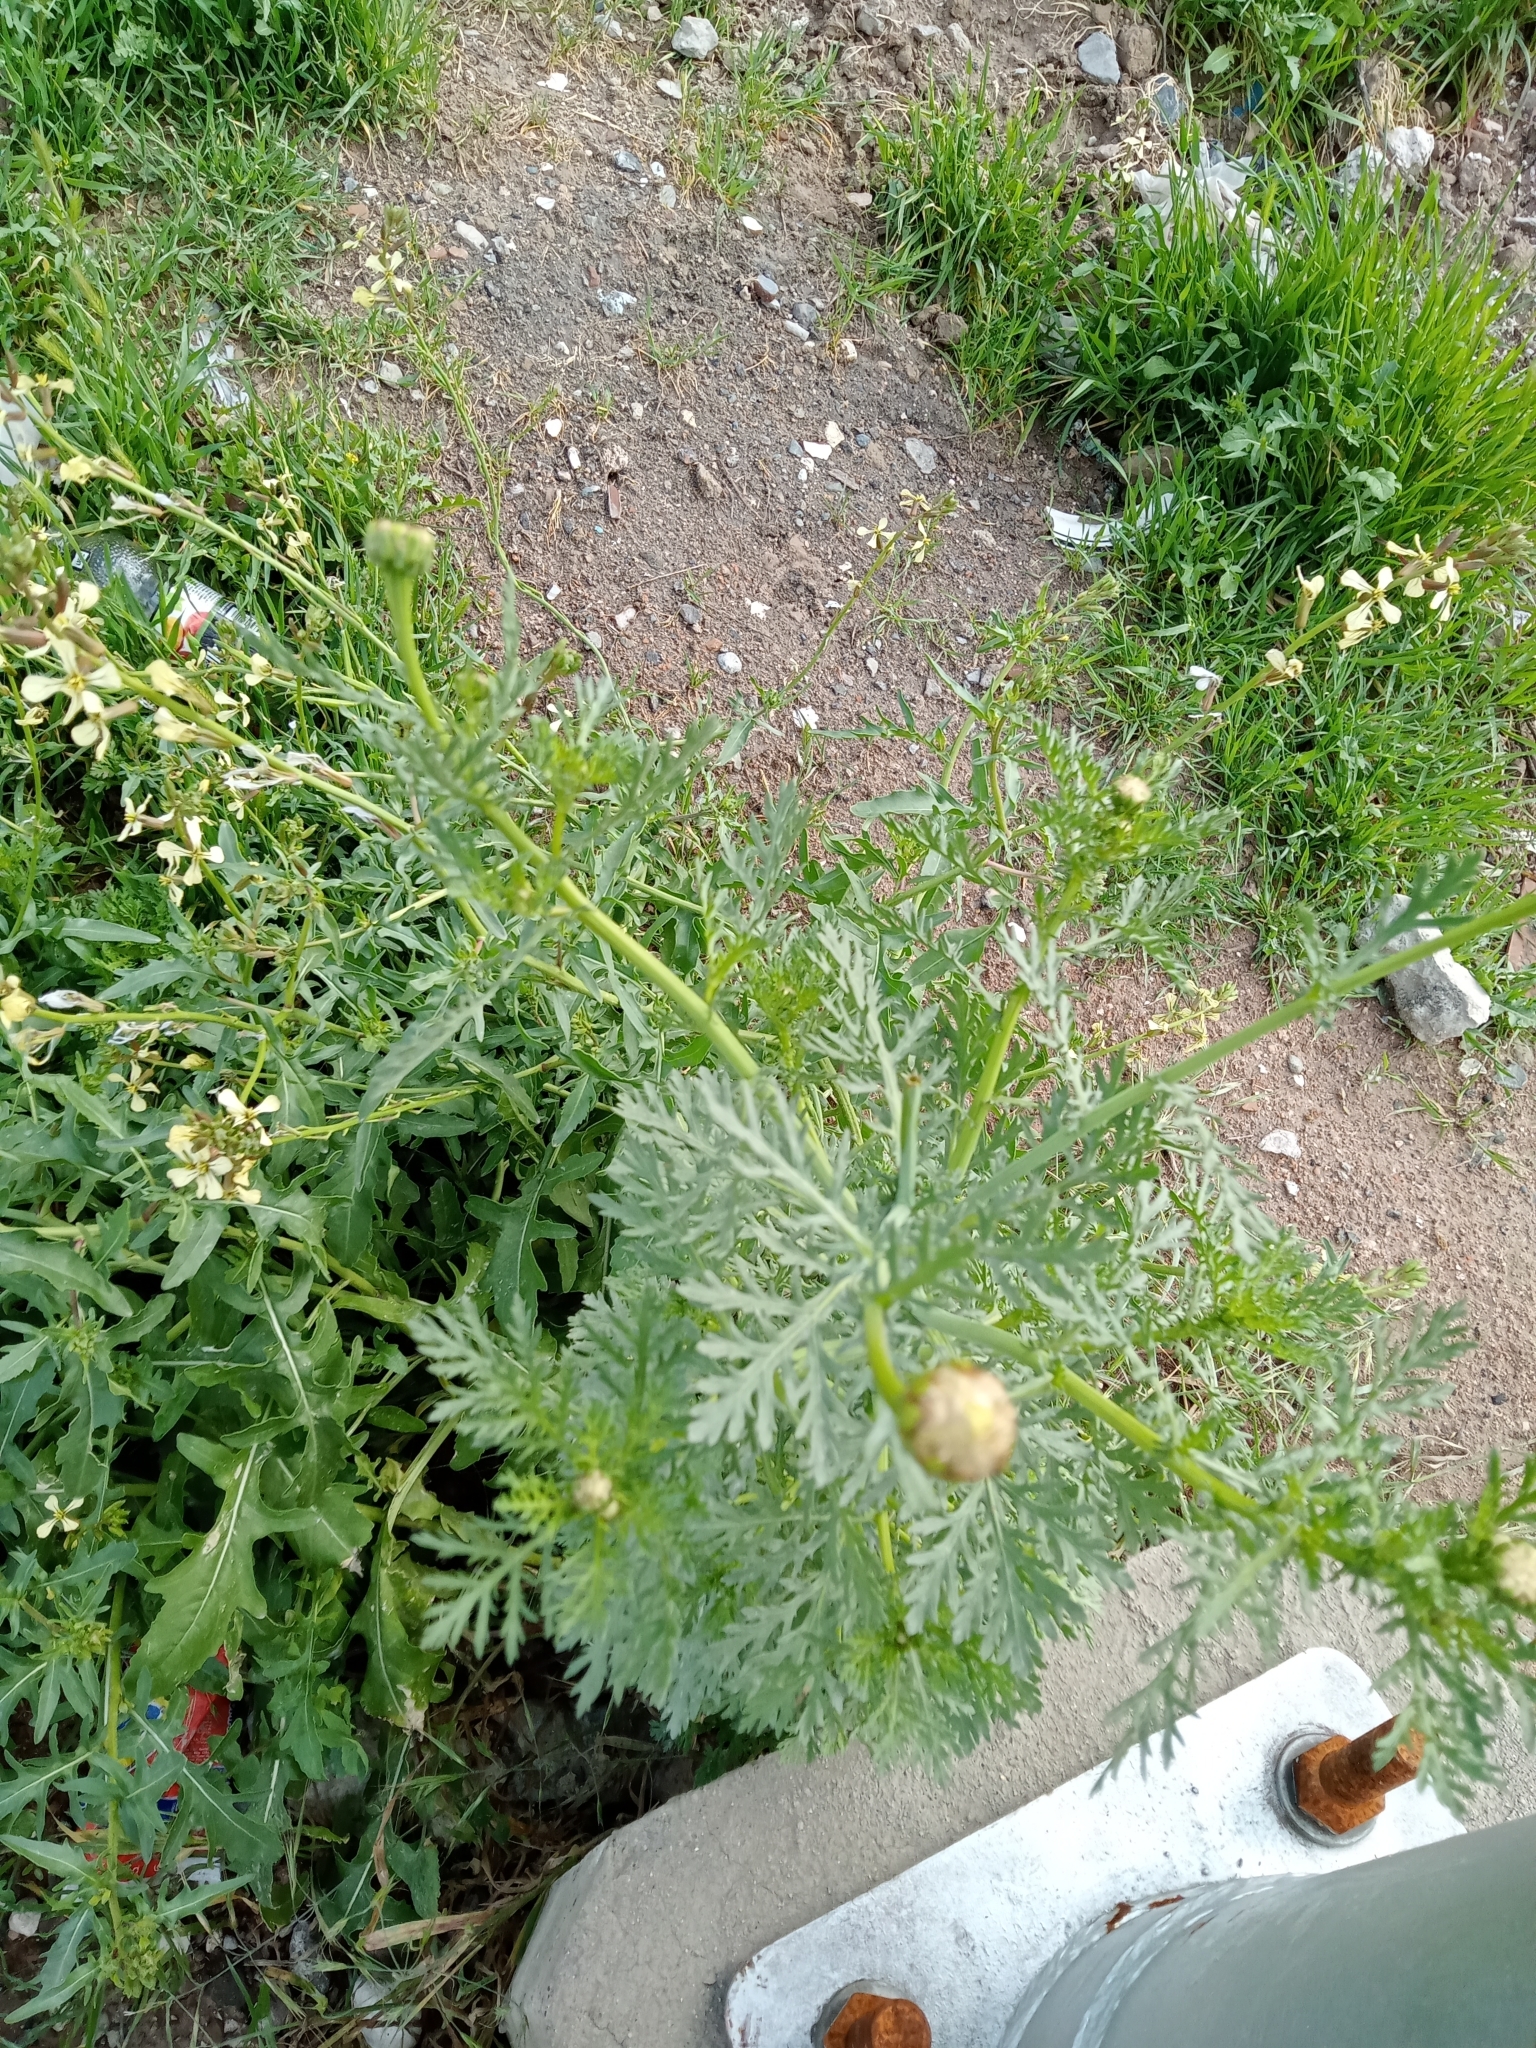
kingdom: Plantae
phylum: Tracheophyta
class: Magnoliopsida
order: Asterales
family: Asteraceae
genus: Glebionis
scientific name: Glebionis coronaria
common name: Crowndaisy
